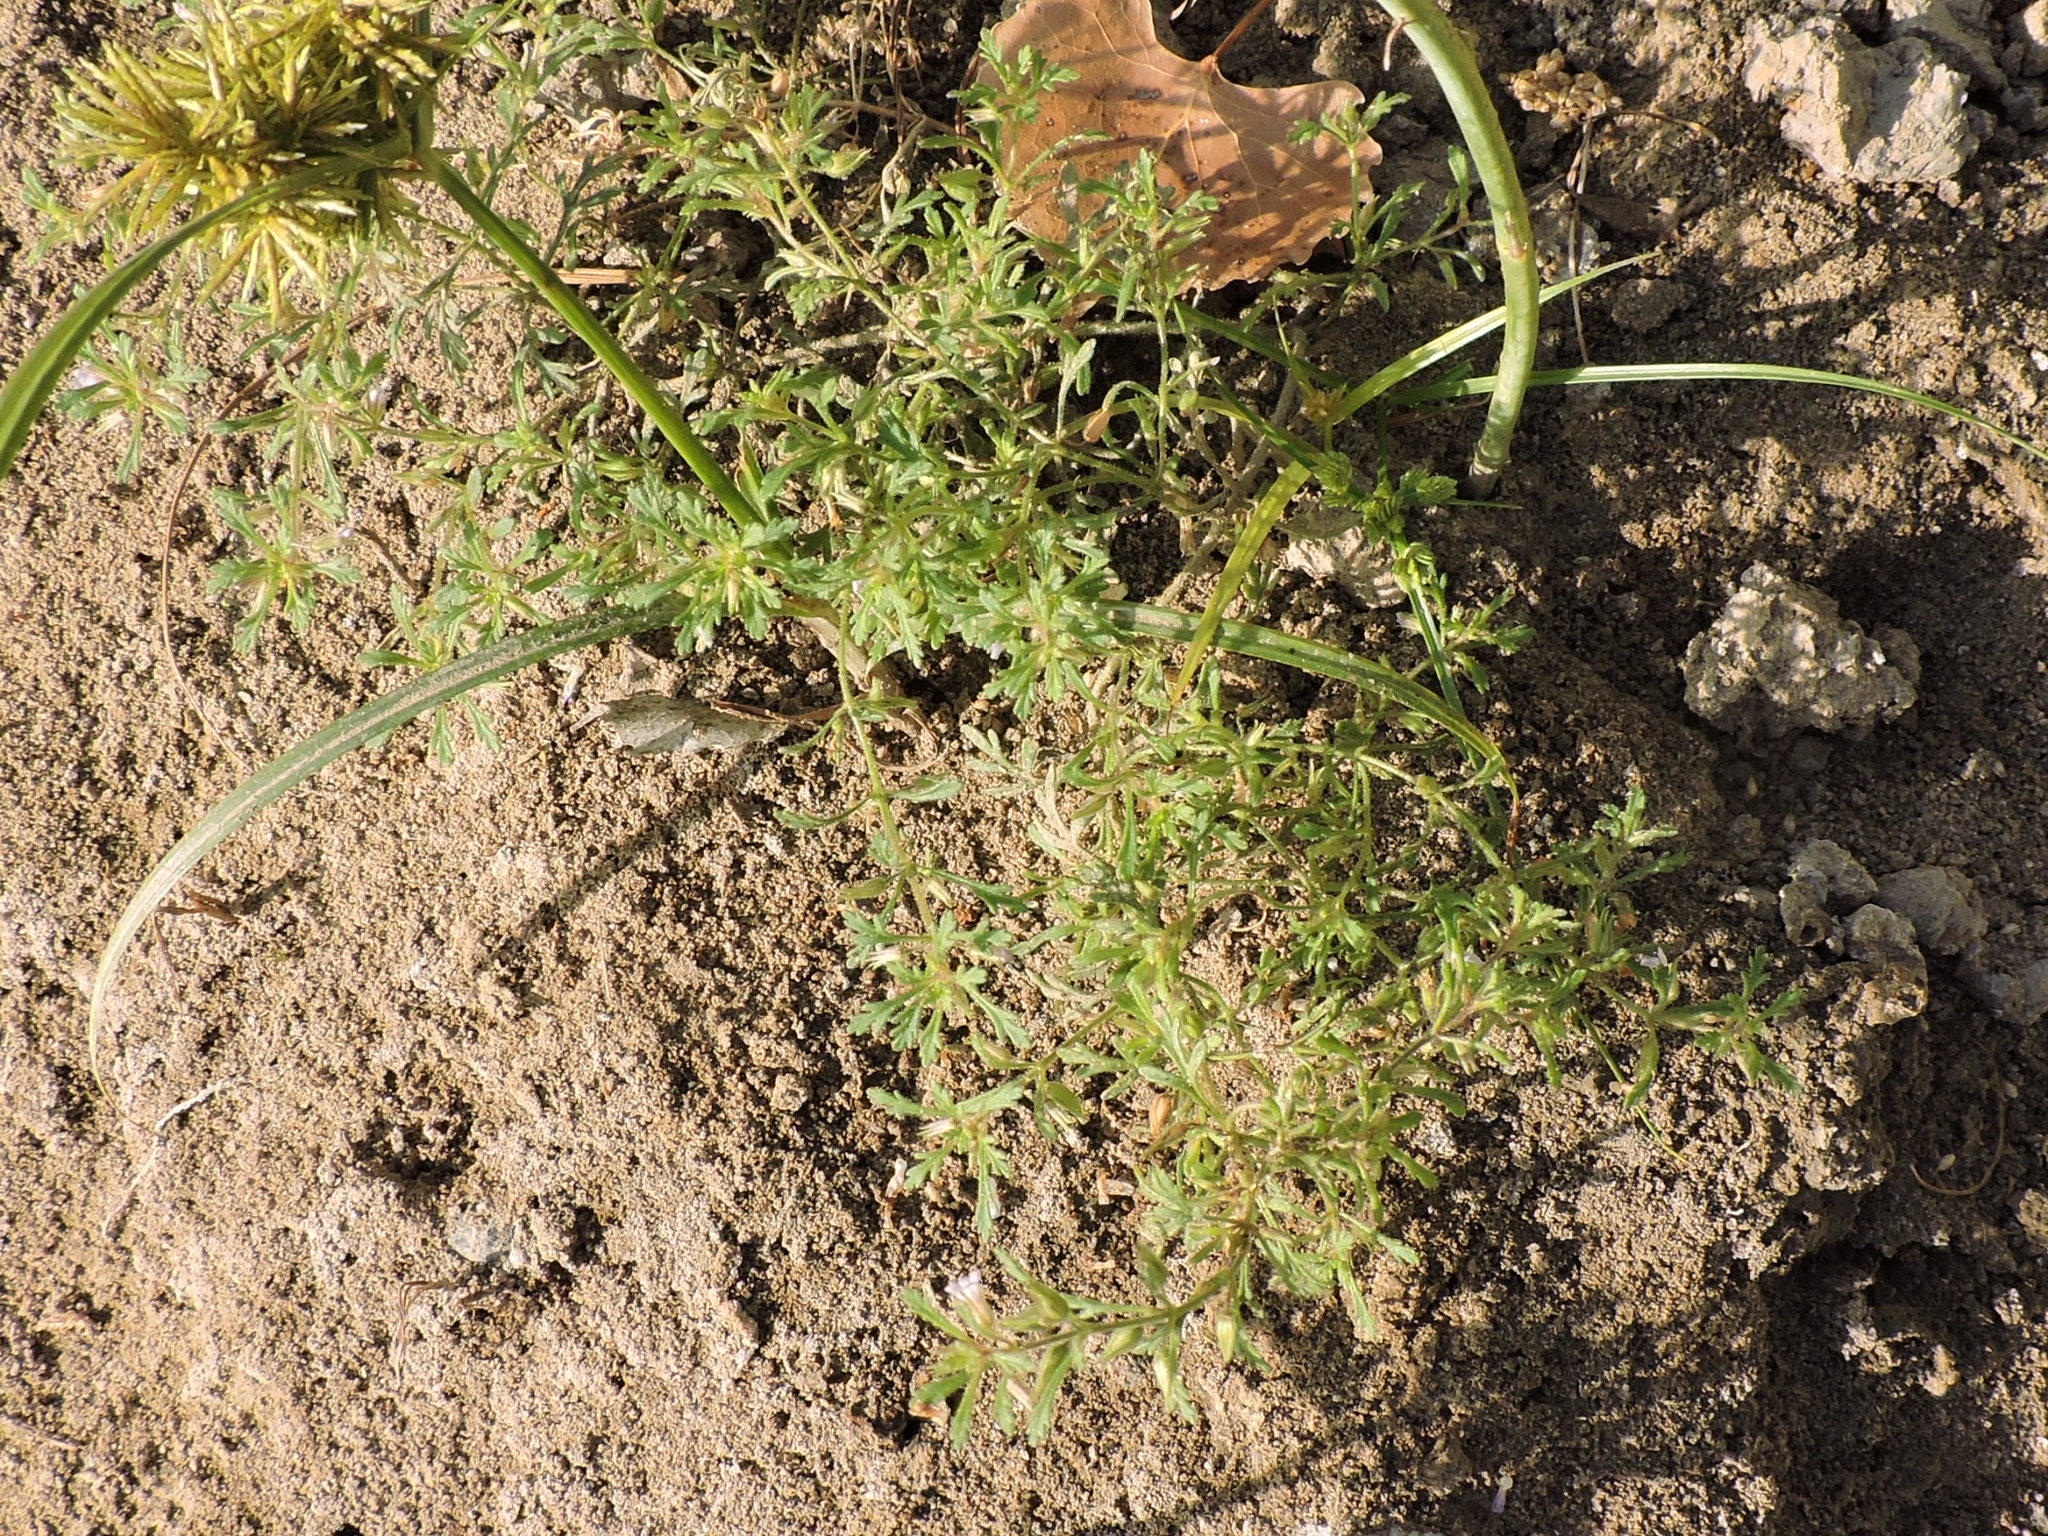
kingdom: Plantae
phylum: Tracheophyta
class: Magnoliopsida
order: Lamiales
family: Plantaginaceae
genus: Leucospora
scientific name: Leucospora multifida
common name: Narrow-leaf paleseed
